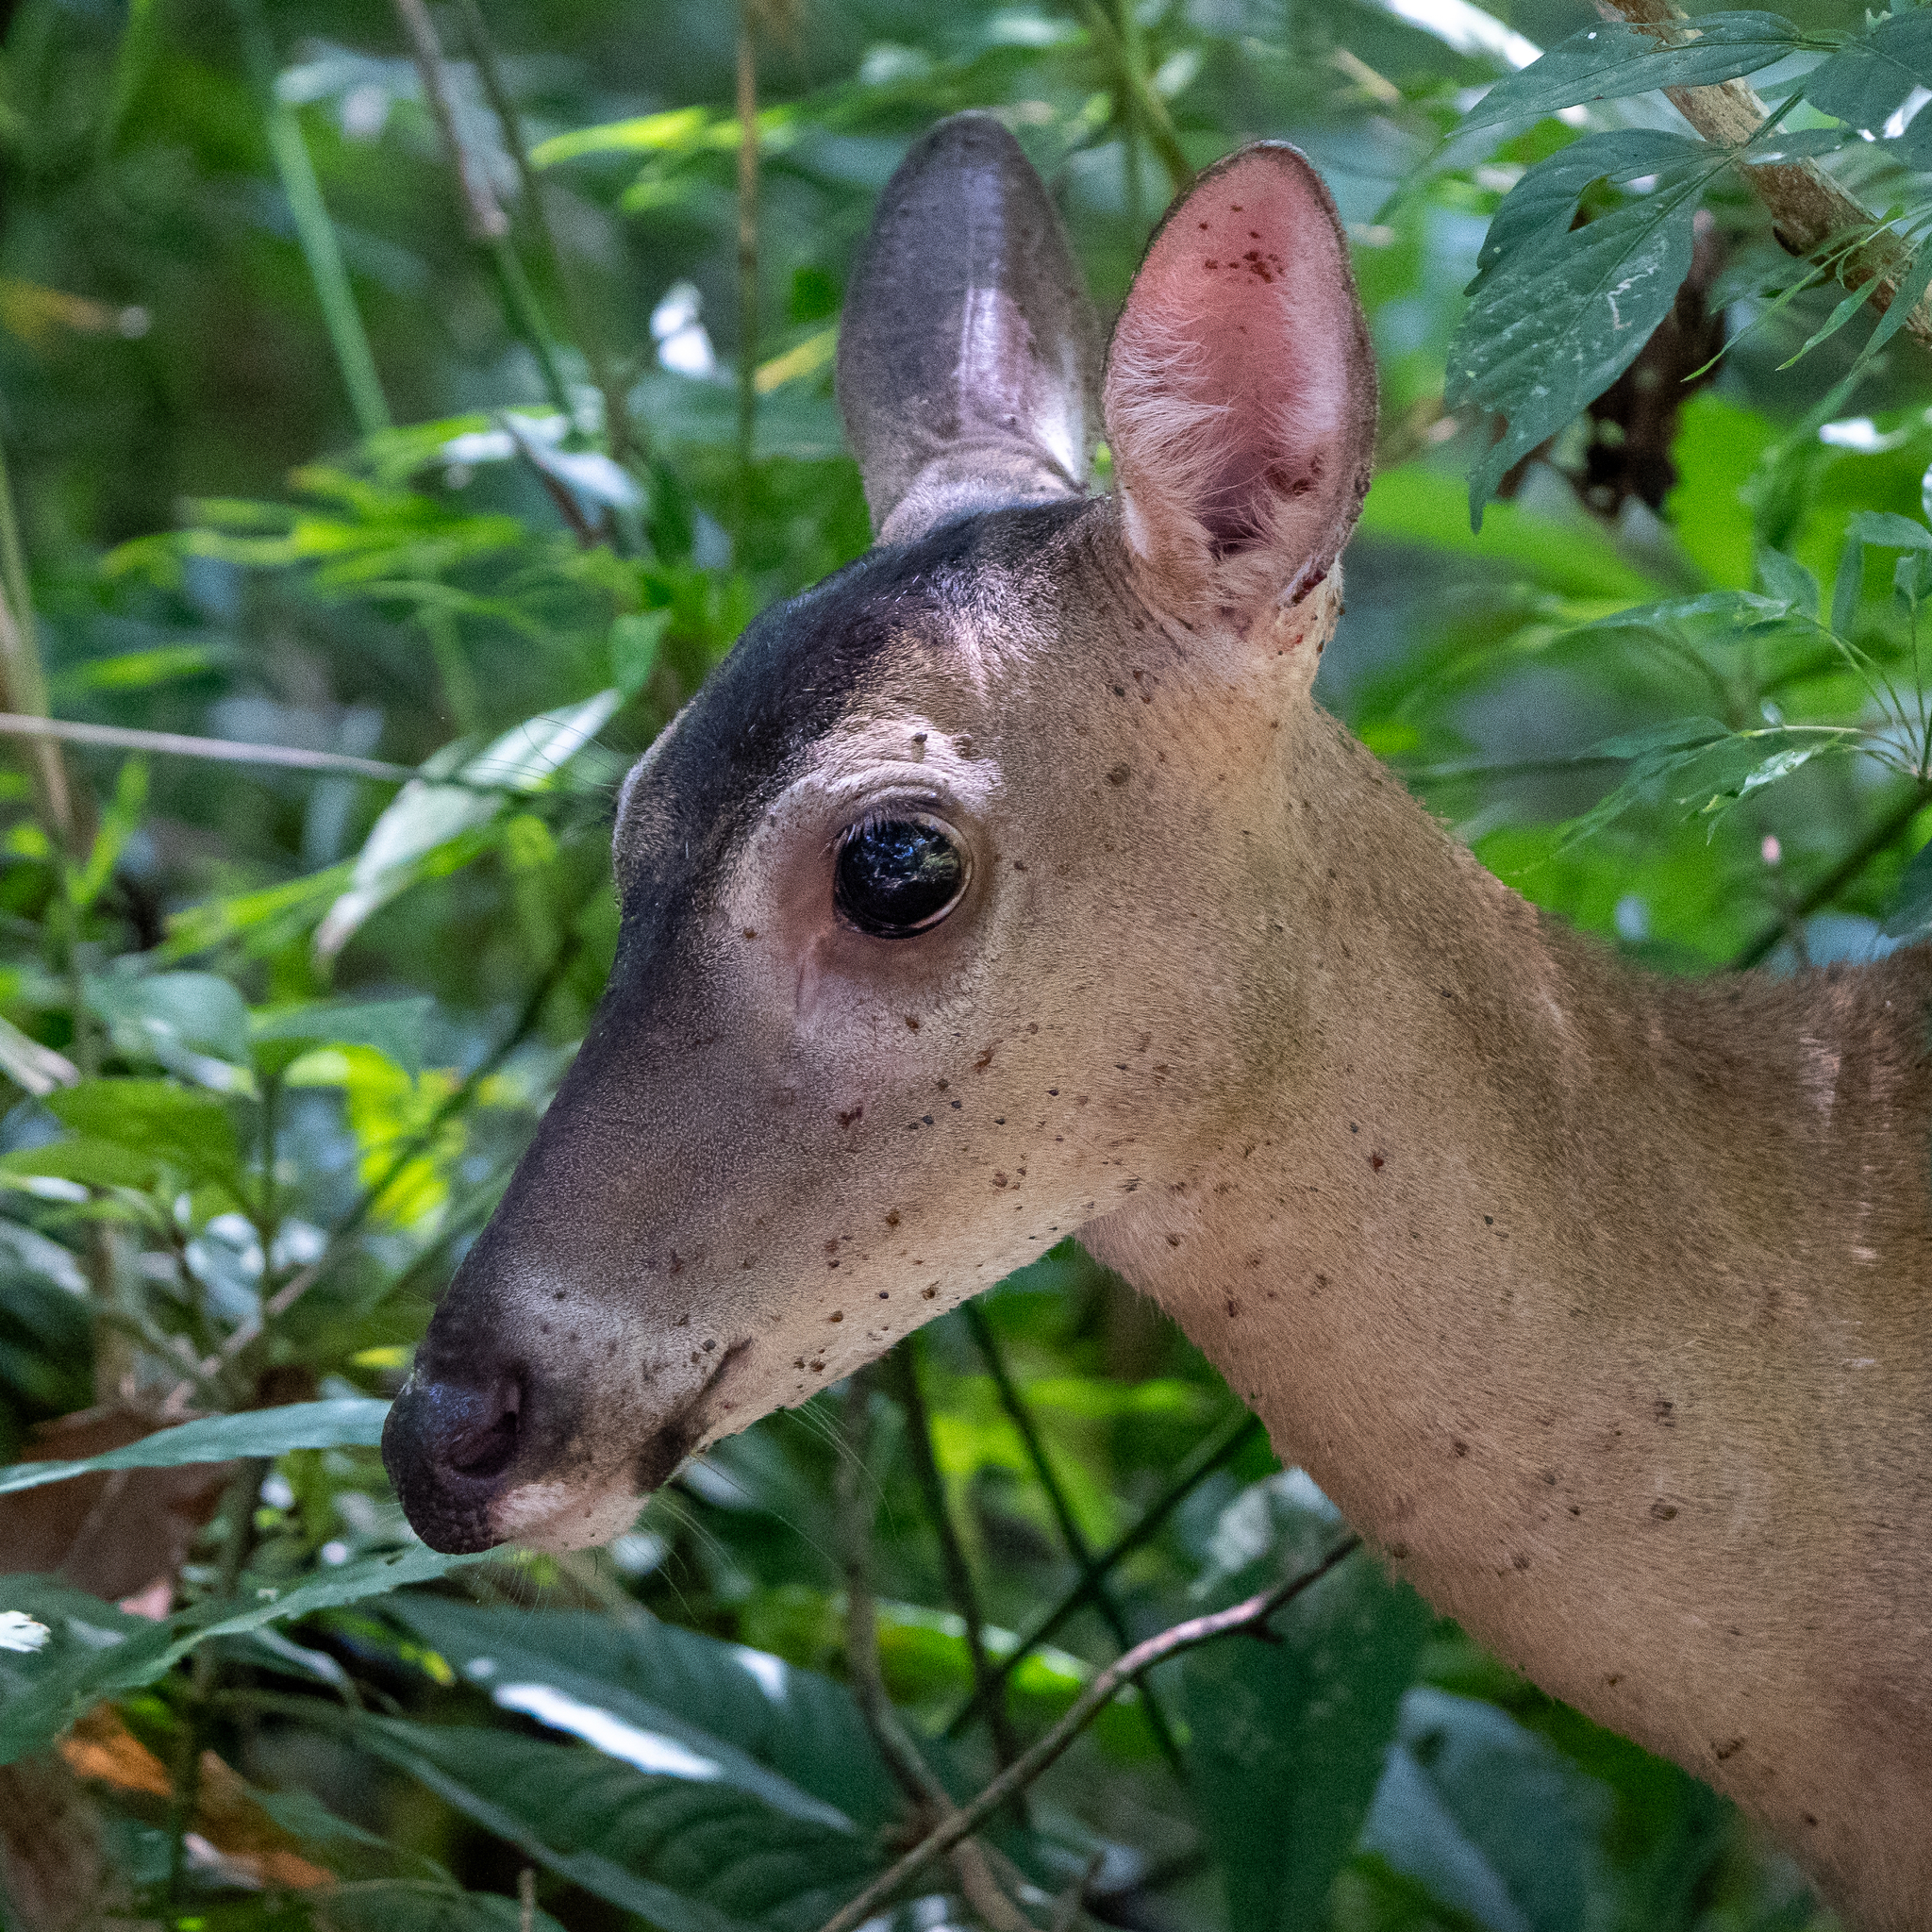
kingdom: Animalia
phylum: Chordata
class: Mammalia
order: Artiodactyla
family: Cervidae
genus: Odocoileus
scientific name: Odocoileus virginianus
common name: White-tailed deer
